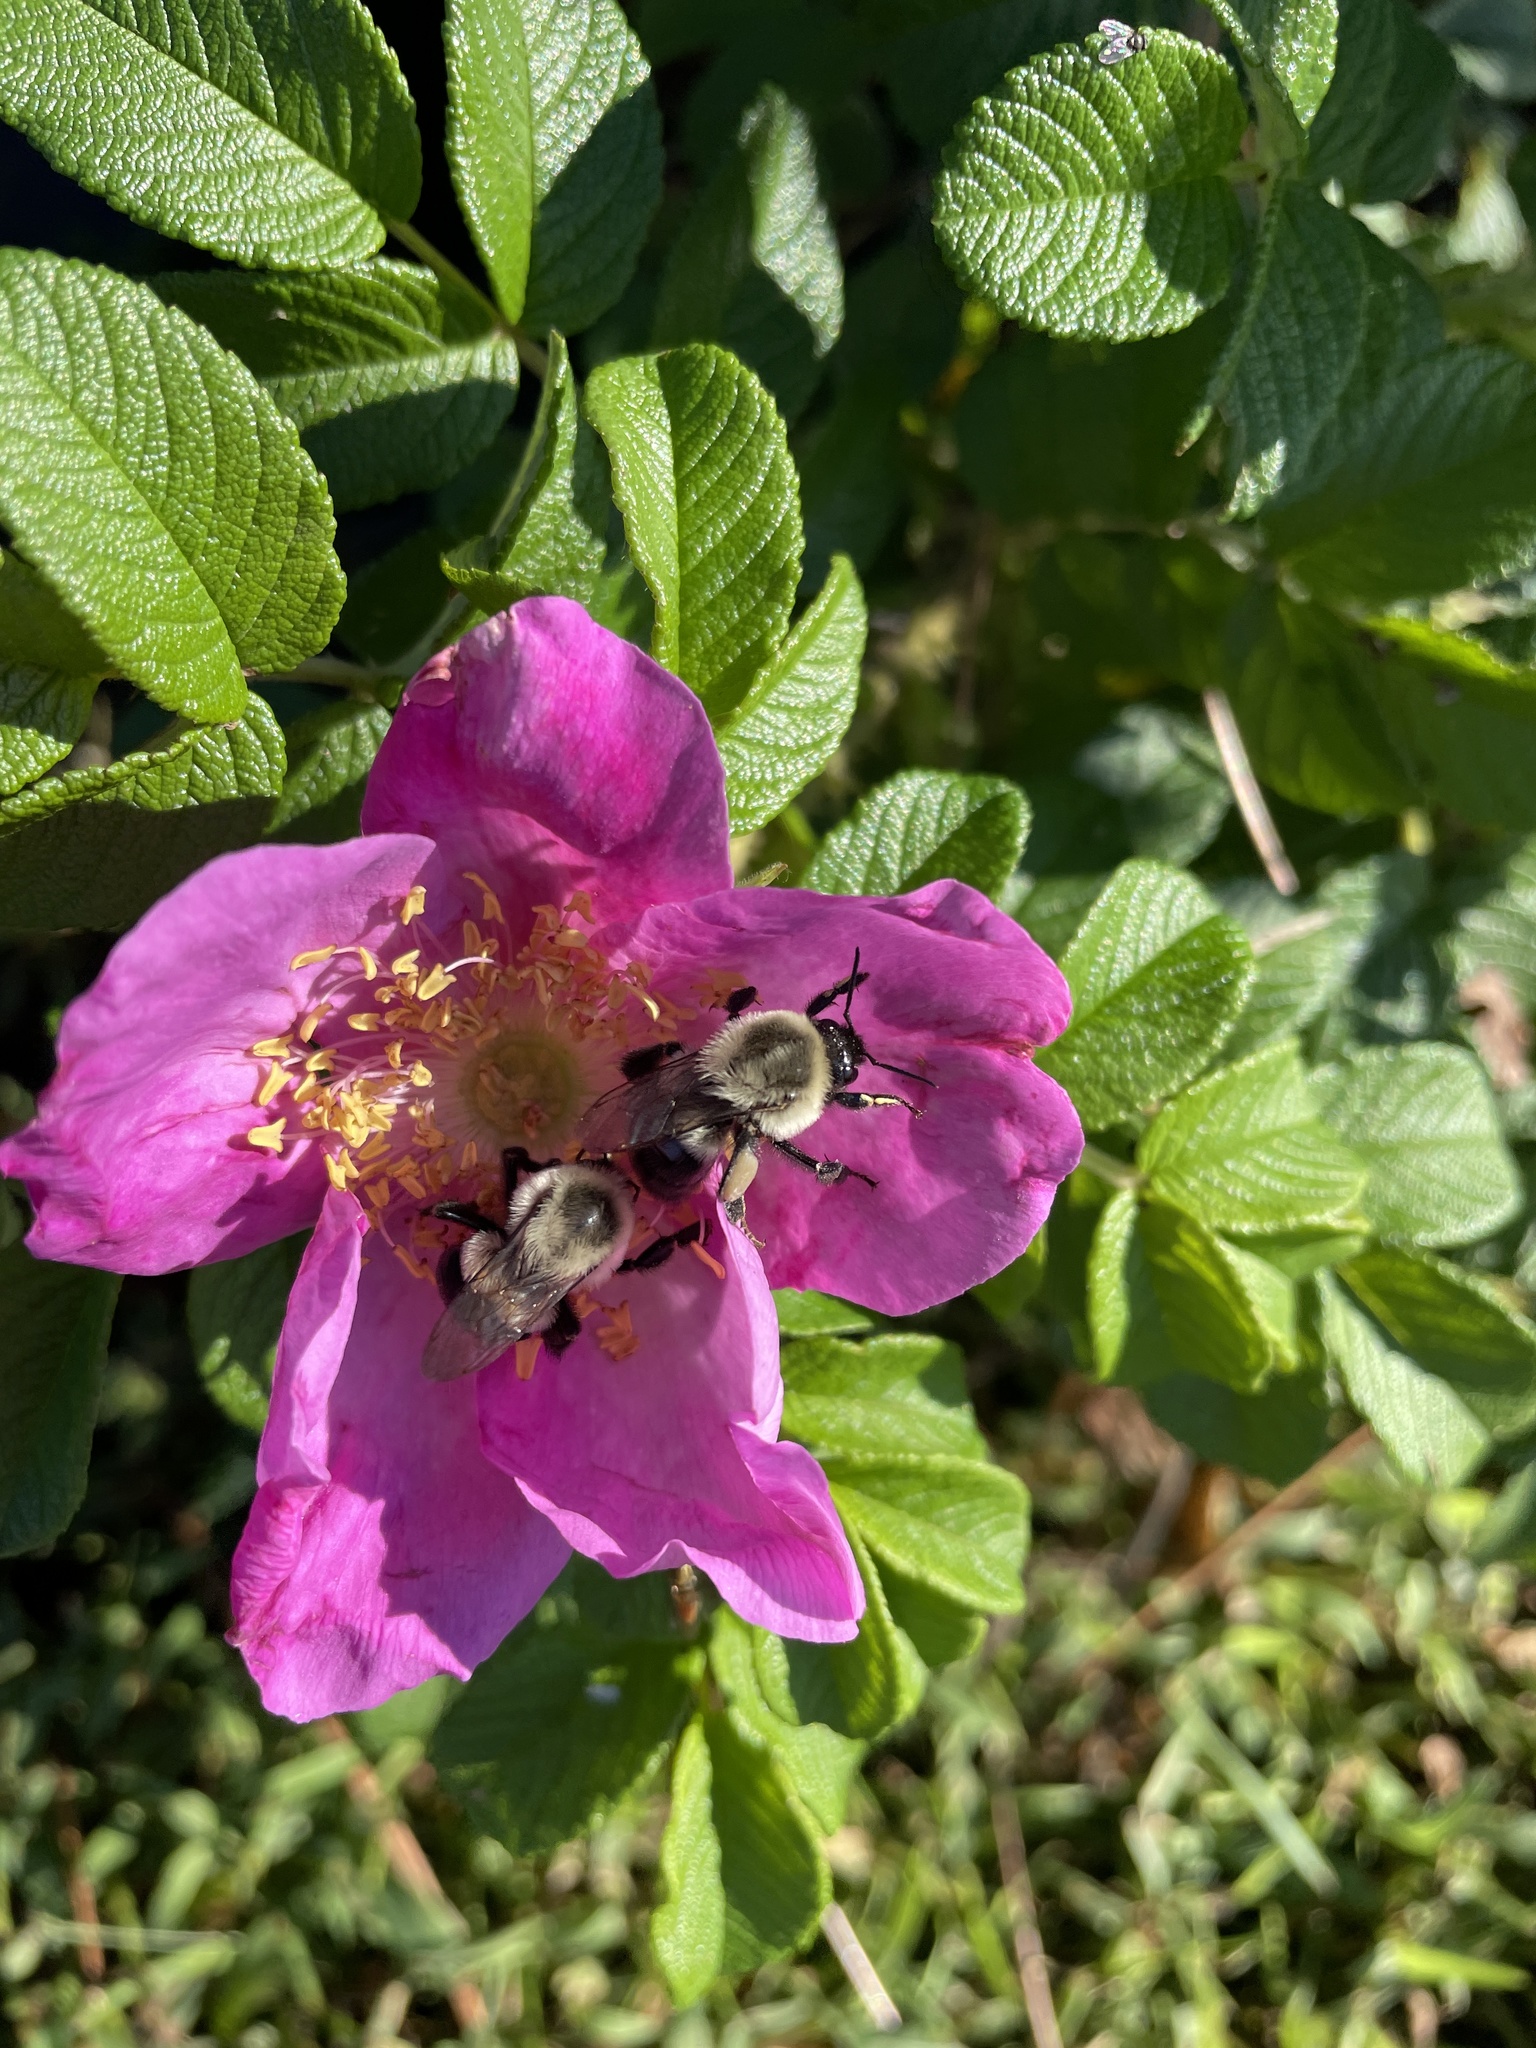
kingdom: Animalia
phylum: Arthropoda
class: Insecta
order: Hymenoptera
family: Apidae
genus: Bombus
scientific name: Bombus impatiens
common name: Common eastern bumble bee
